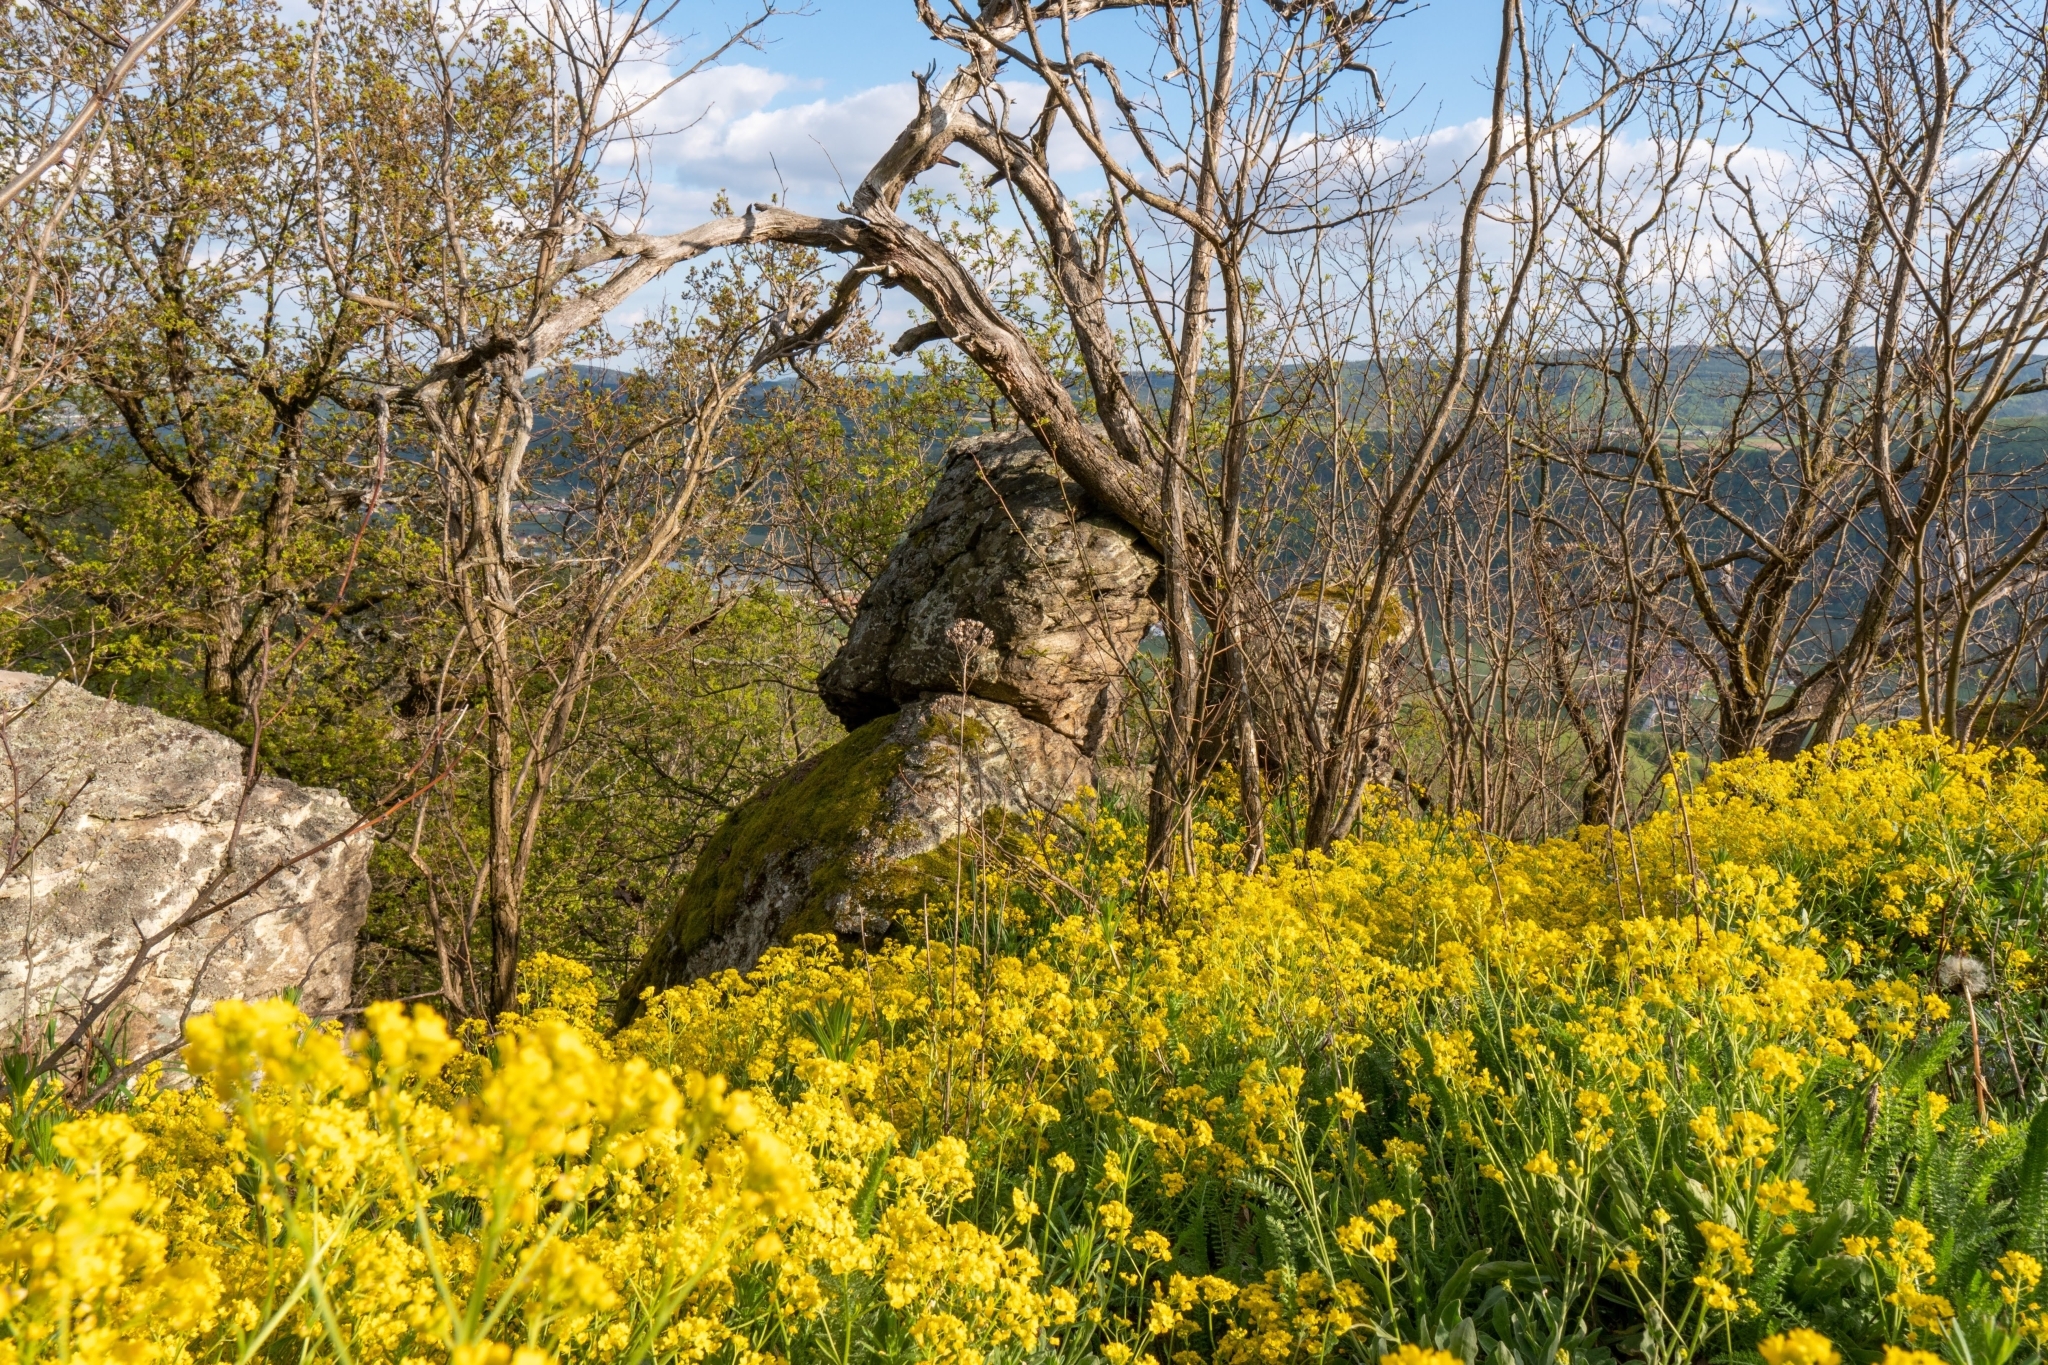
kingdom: Plantae
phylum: Tracheophyta
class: Magnoliopsida
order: Brassicales
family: Brassicaceae
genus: Aurinia
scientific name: Aurinia saxatilis
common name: Golden-tuft alyssum
